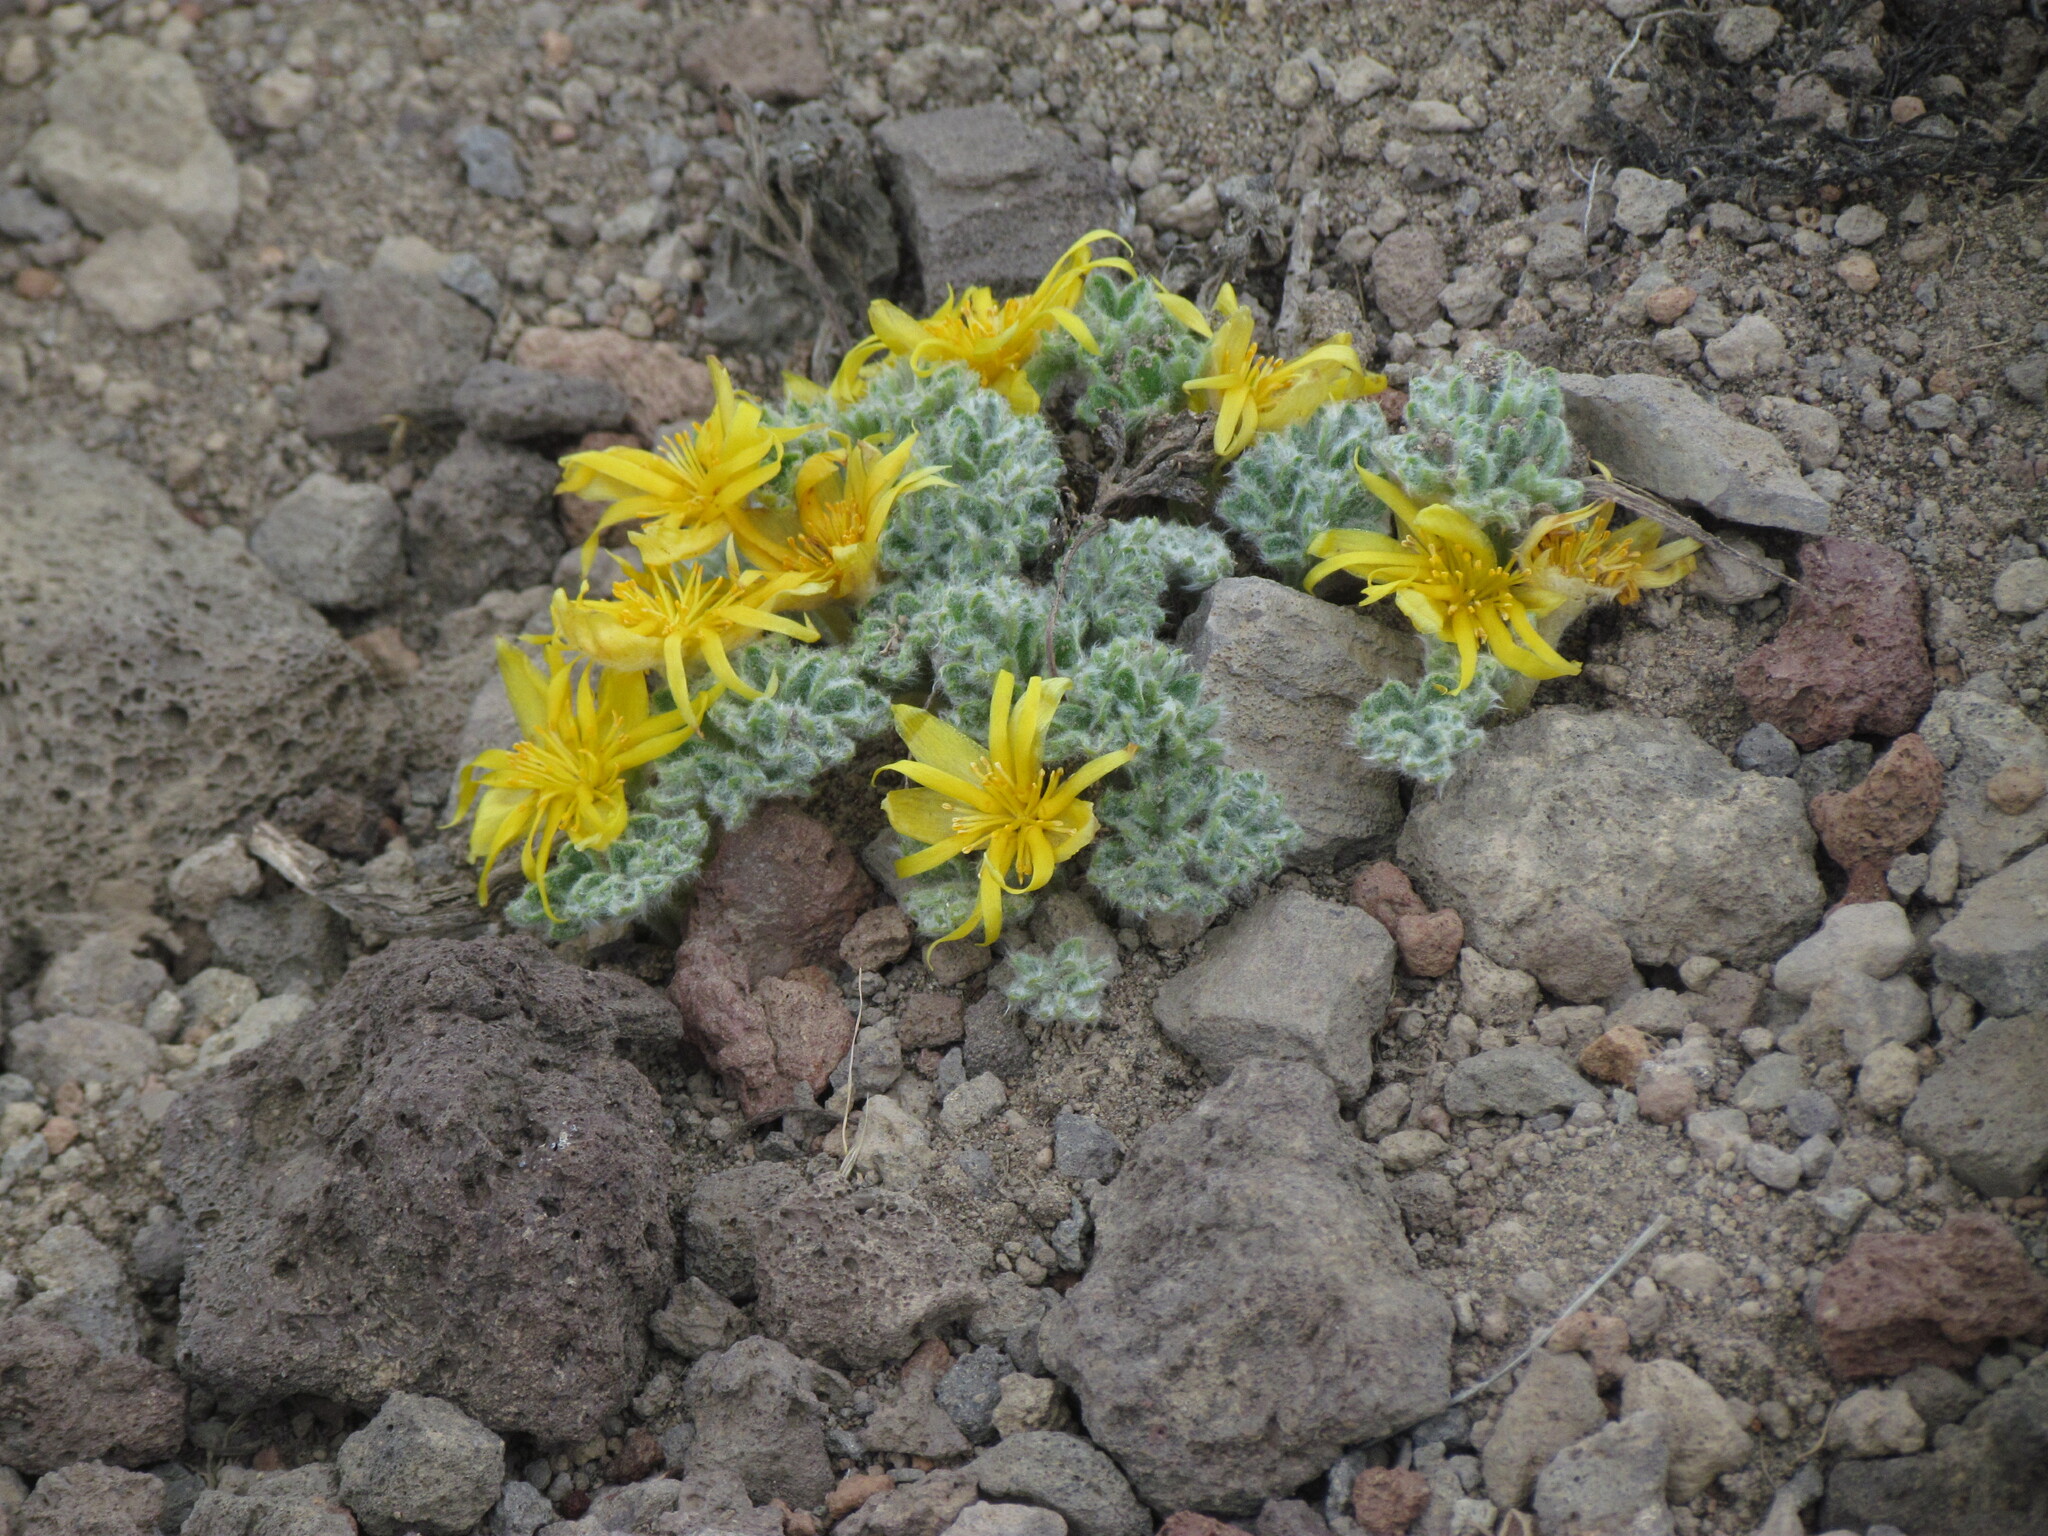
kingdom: Plantae
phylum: Tracheophyta
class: Magnoliopsida
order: Ranunculales
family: Ranunculaceae
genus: Hamadryas
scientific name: Hamadryas delfinii
